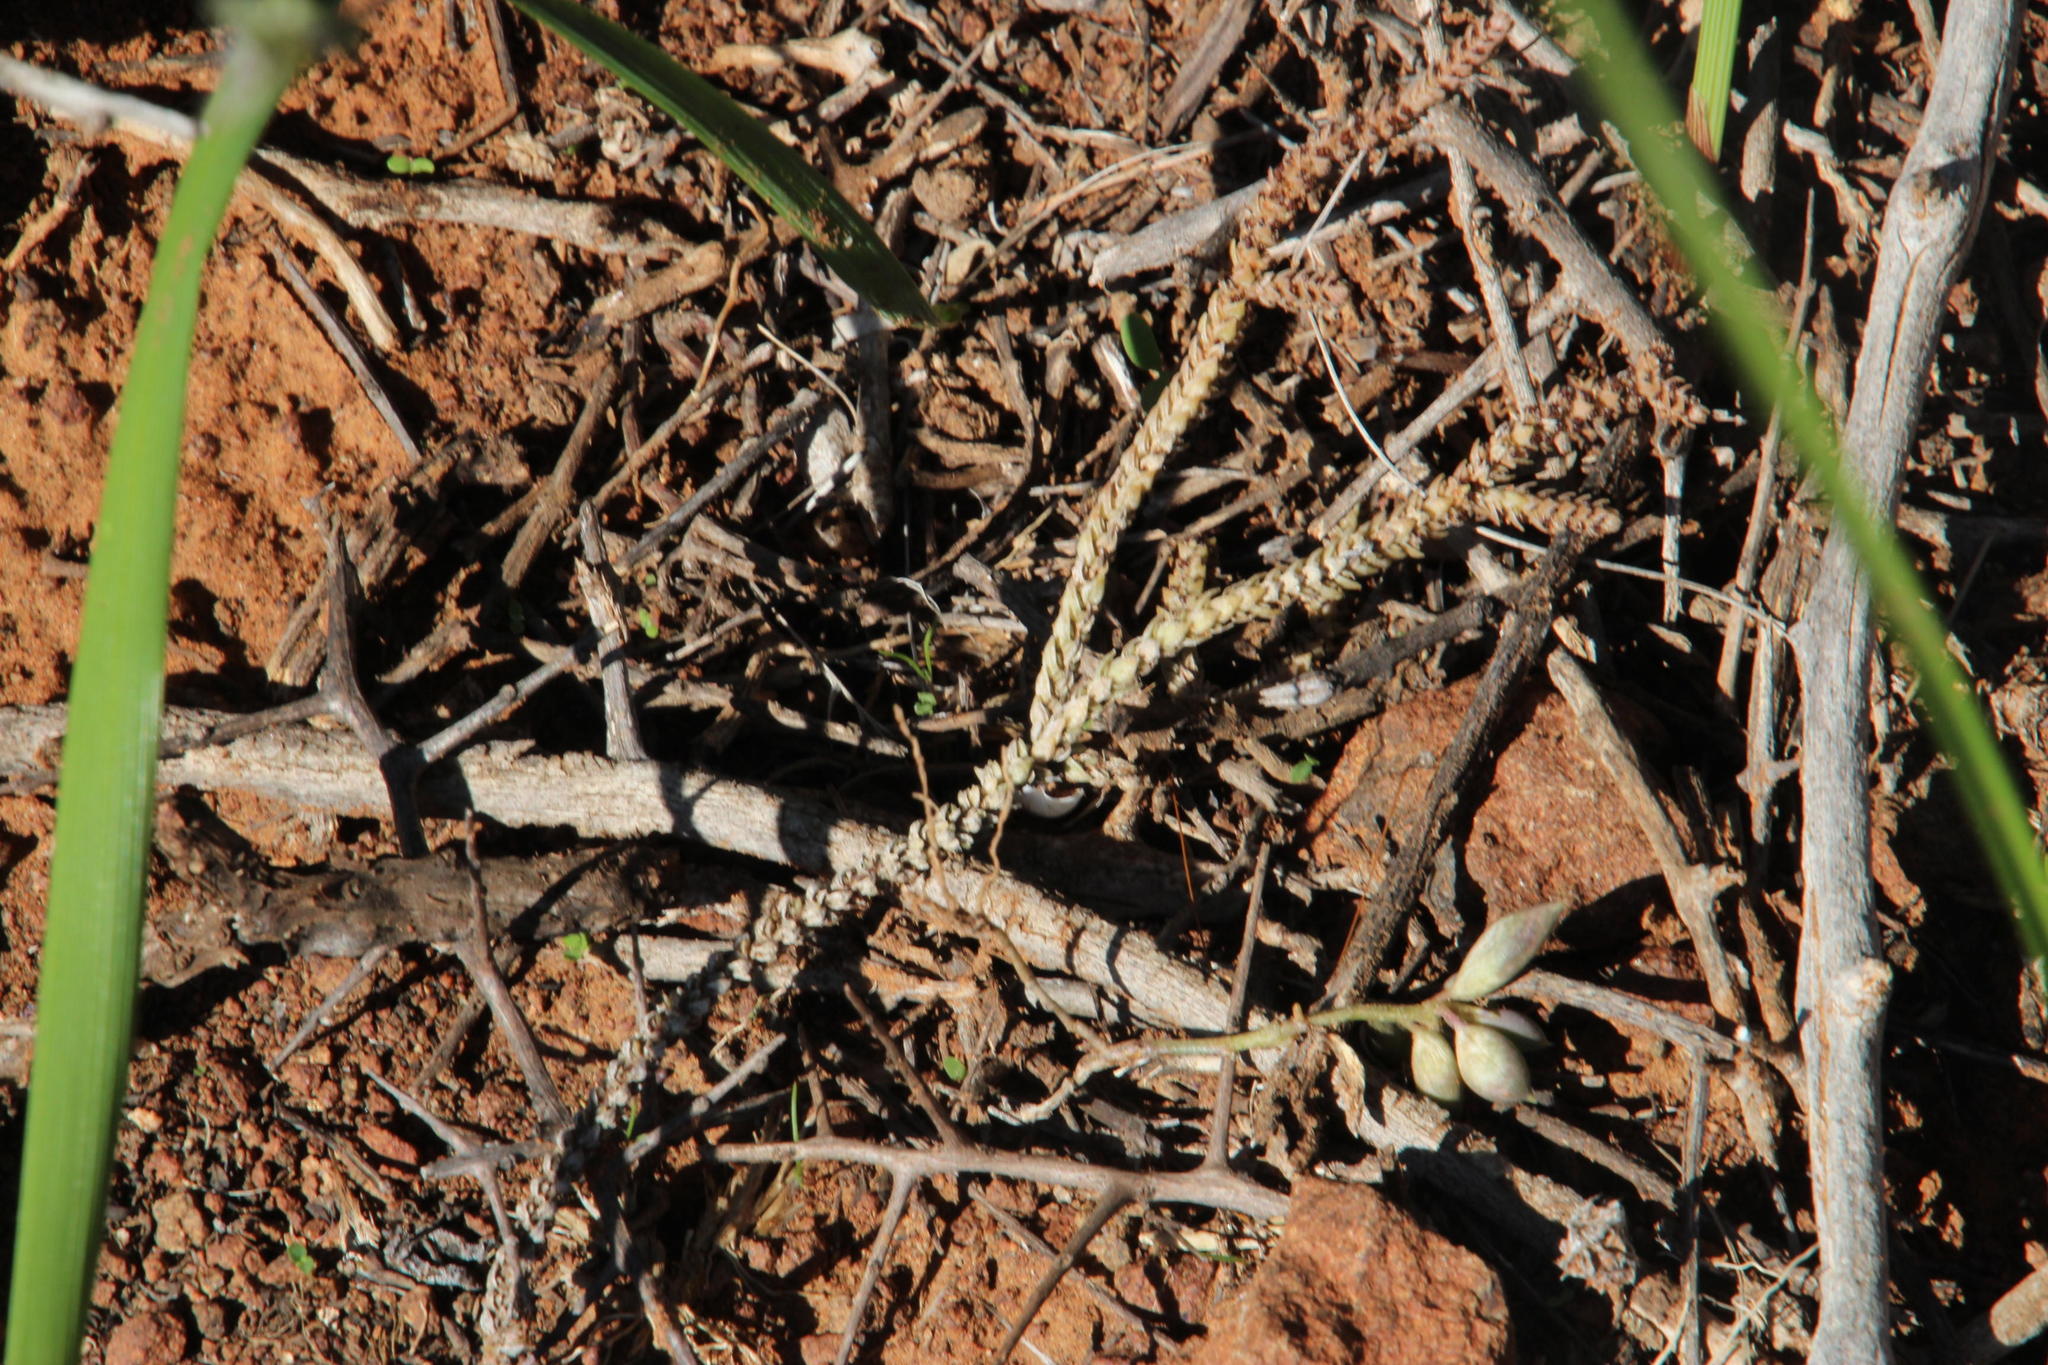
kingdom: Plantae
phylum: Tracheophyta
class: Magnoliopsida
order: Saxifragales
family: Crassulaceae
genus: Crassula
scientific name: Crassula muscosa
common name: Toy-cypress
